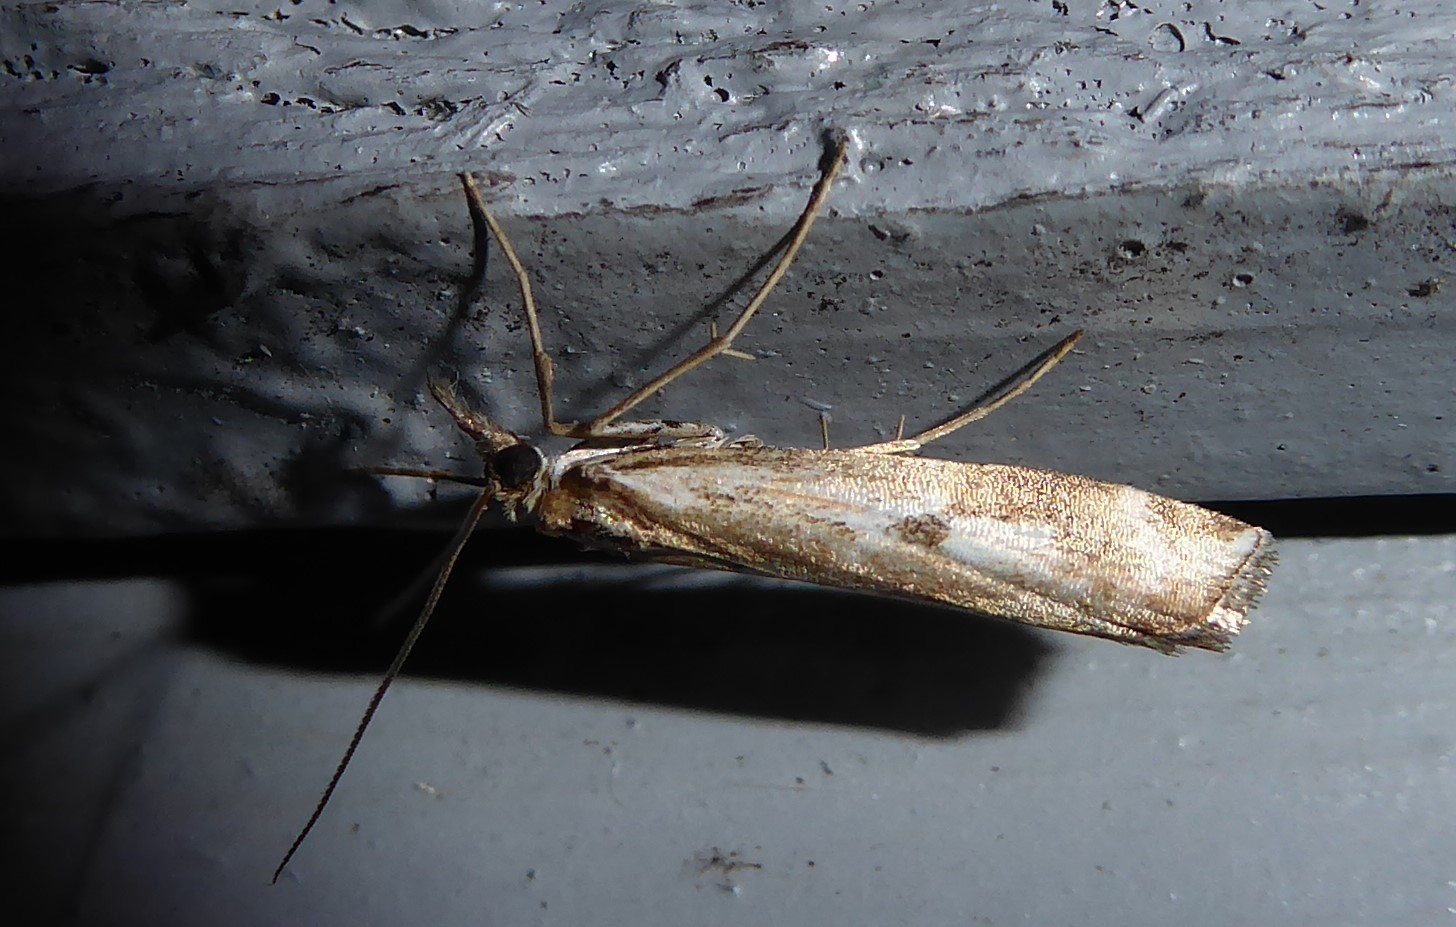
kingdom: Animalia
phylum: Arthropoda
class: Insecta
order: Lepidoptera
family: Crambidae
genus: Orocrambus
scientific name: Orocrambus vulgaris
